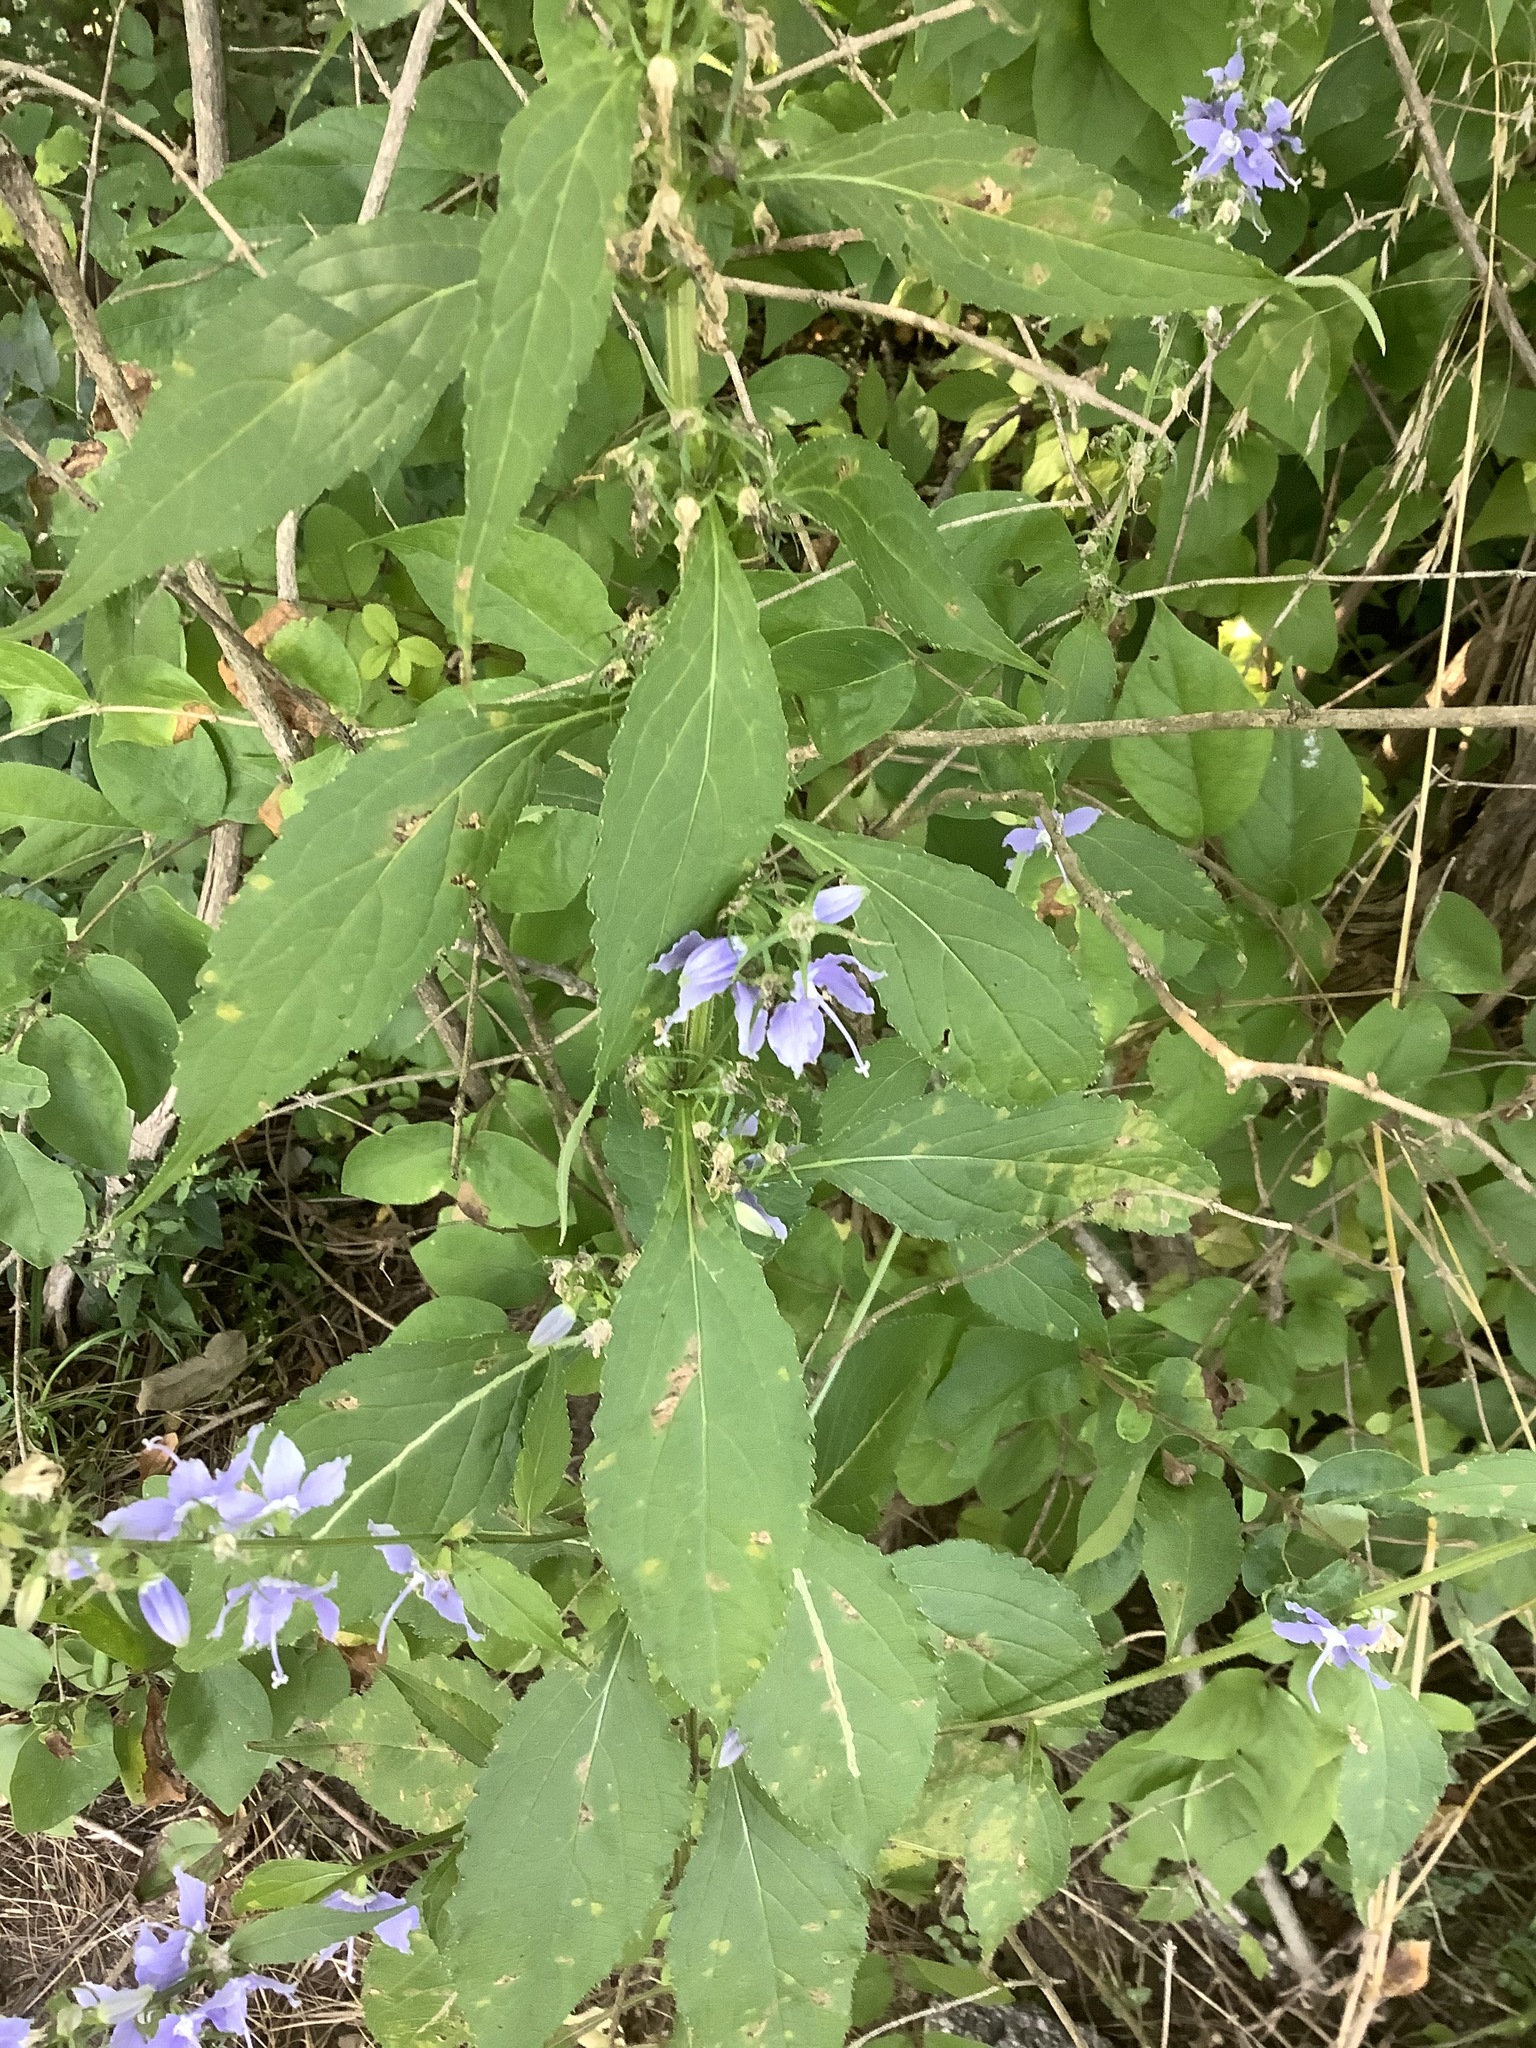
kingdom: Plantae
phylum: Tracheophyta
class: Magnoliopsida
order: Asterales
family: Campanulaceae
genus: Campanulastrum
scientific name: Campanulastrum americanum
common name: American bellflower
